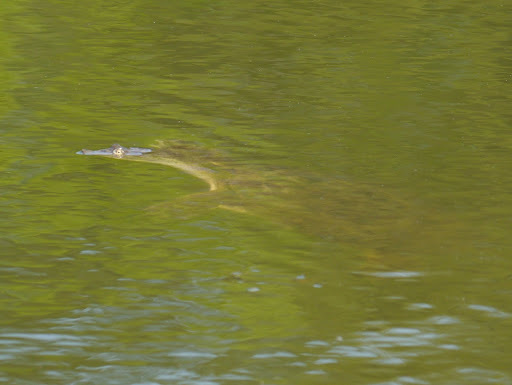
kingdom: Animalia
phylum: Chordata
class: Testudines
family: Trionychidae
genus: Apalone
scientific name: Apalone spinifera
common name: Spiny softshell turtle
